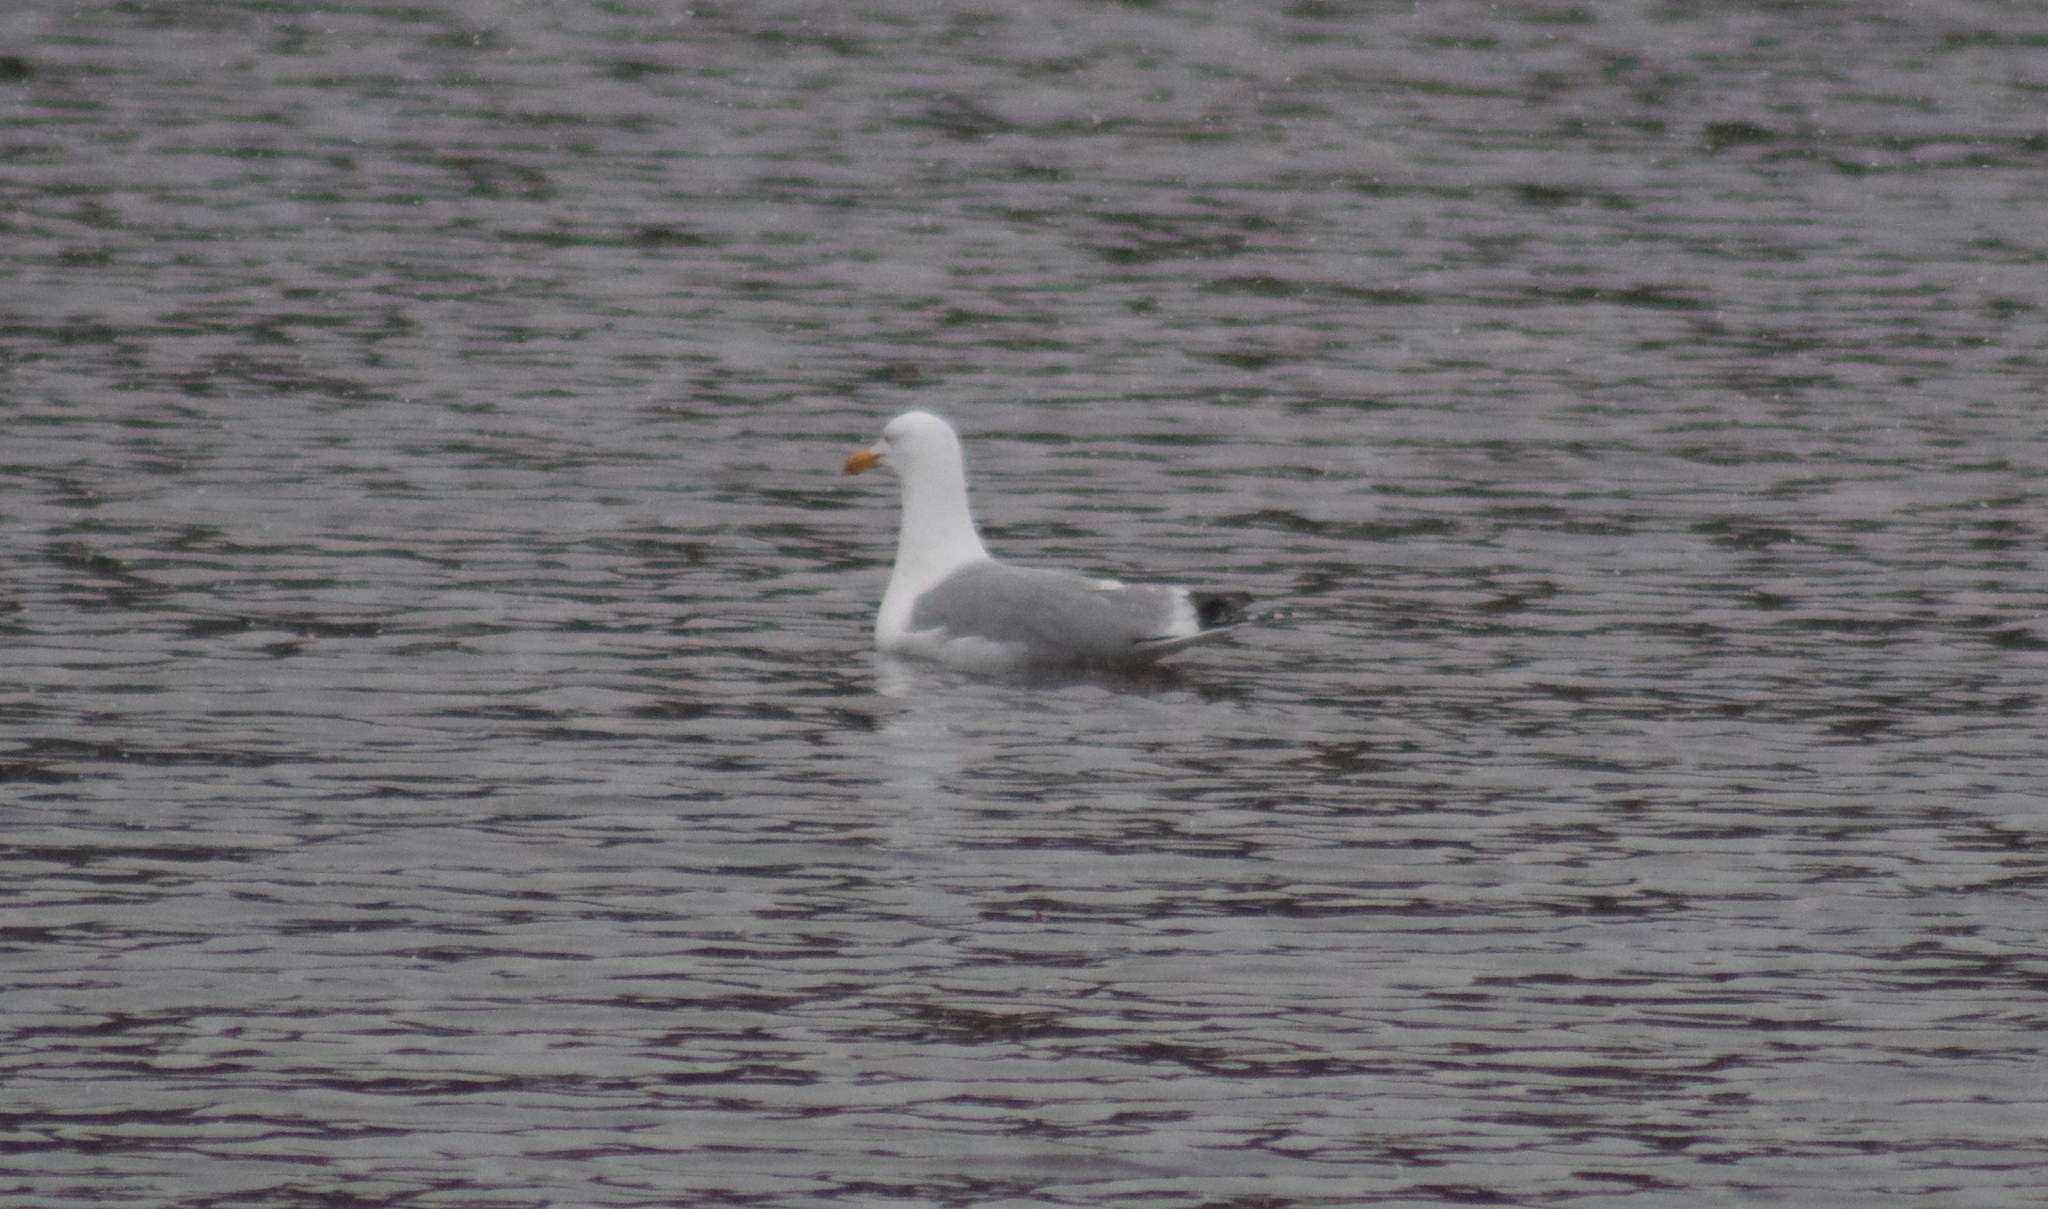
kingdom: Animalia
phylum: Chordata
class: Aves
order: Charadriiformes
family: Laridae
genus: Larus
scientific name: Larus argentatus
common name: Herring gull
